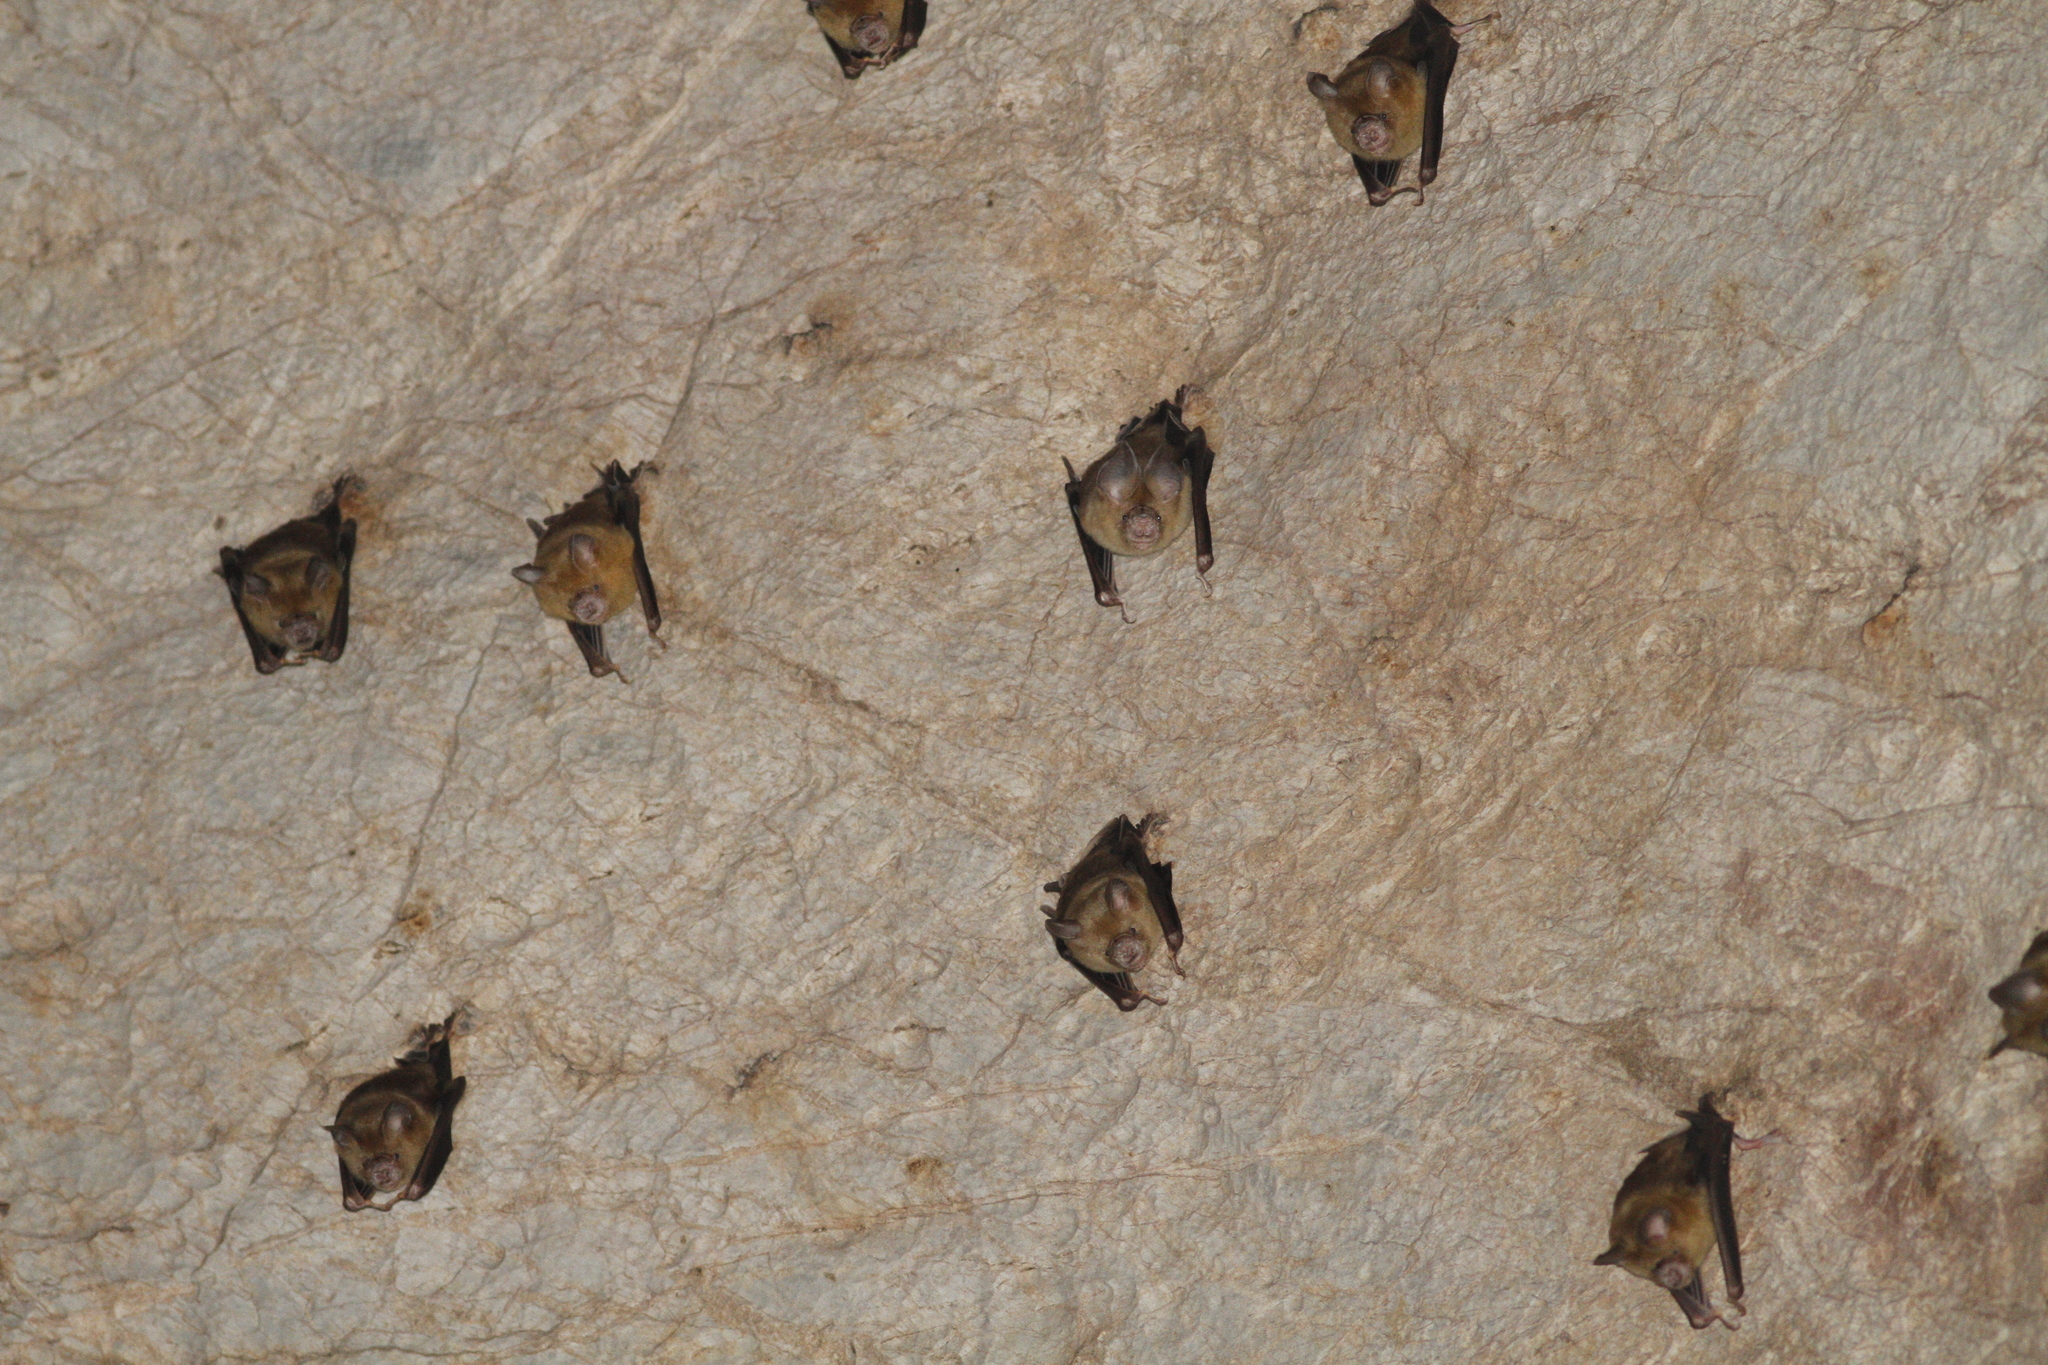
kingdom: Animalia
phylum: Chordata
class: Mammalia
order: Chiroptera
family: Hipposideridae
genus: Hipposideros
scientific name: Hipposideros lylei
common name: Shield-faced leaf-nosed bat
